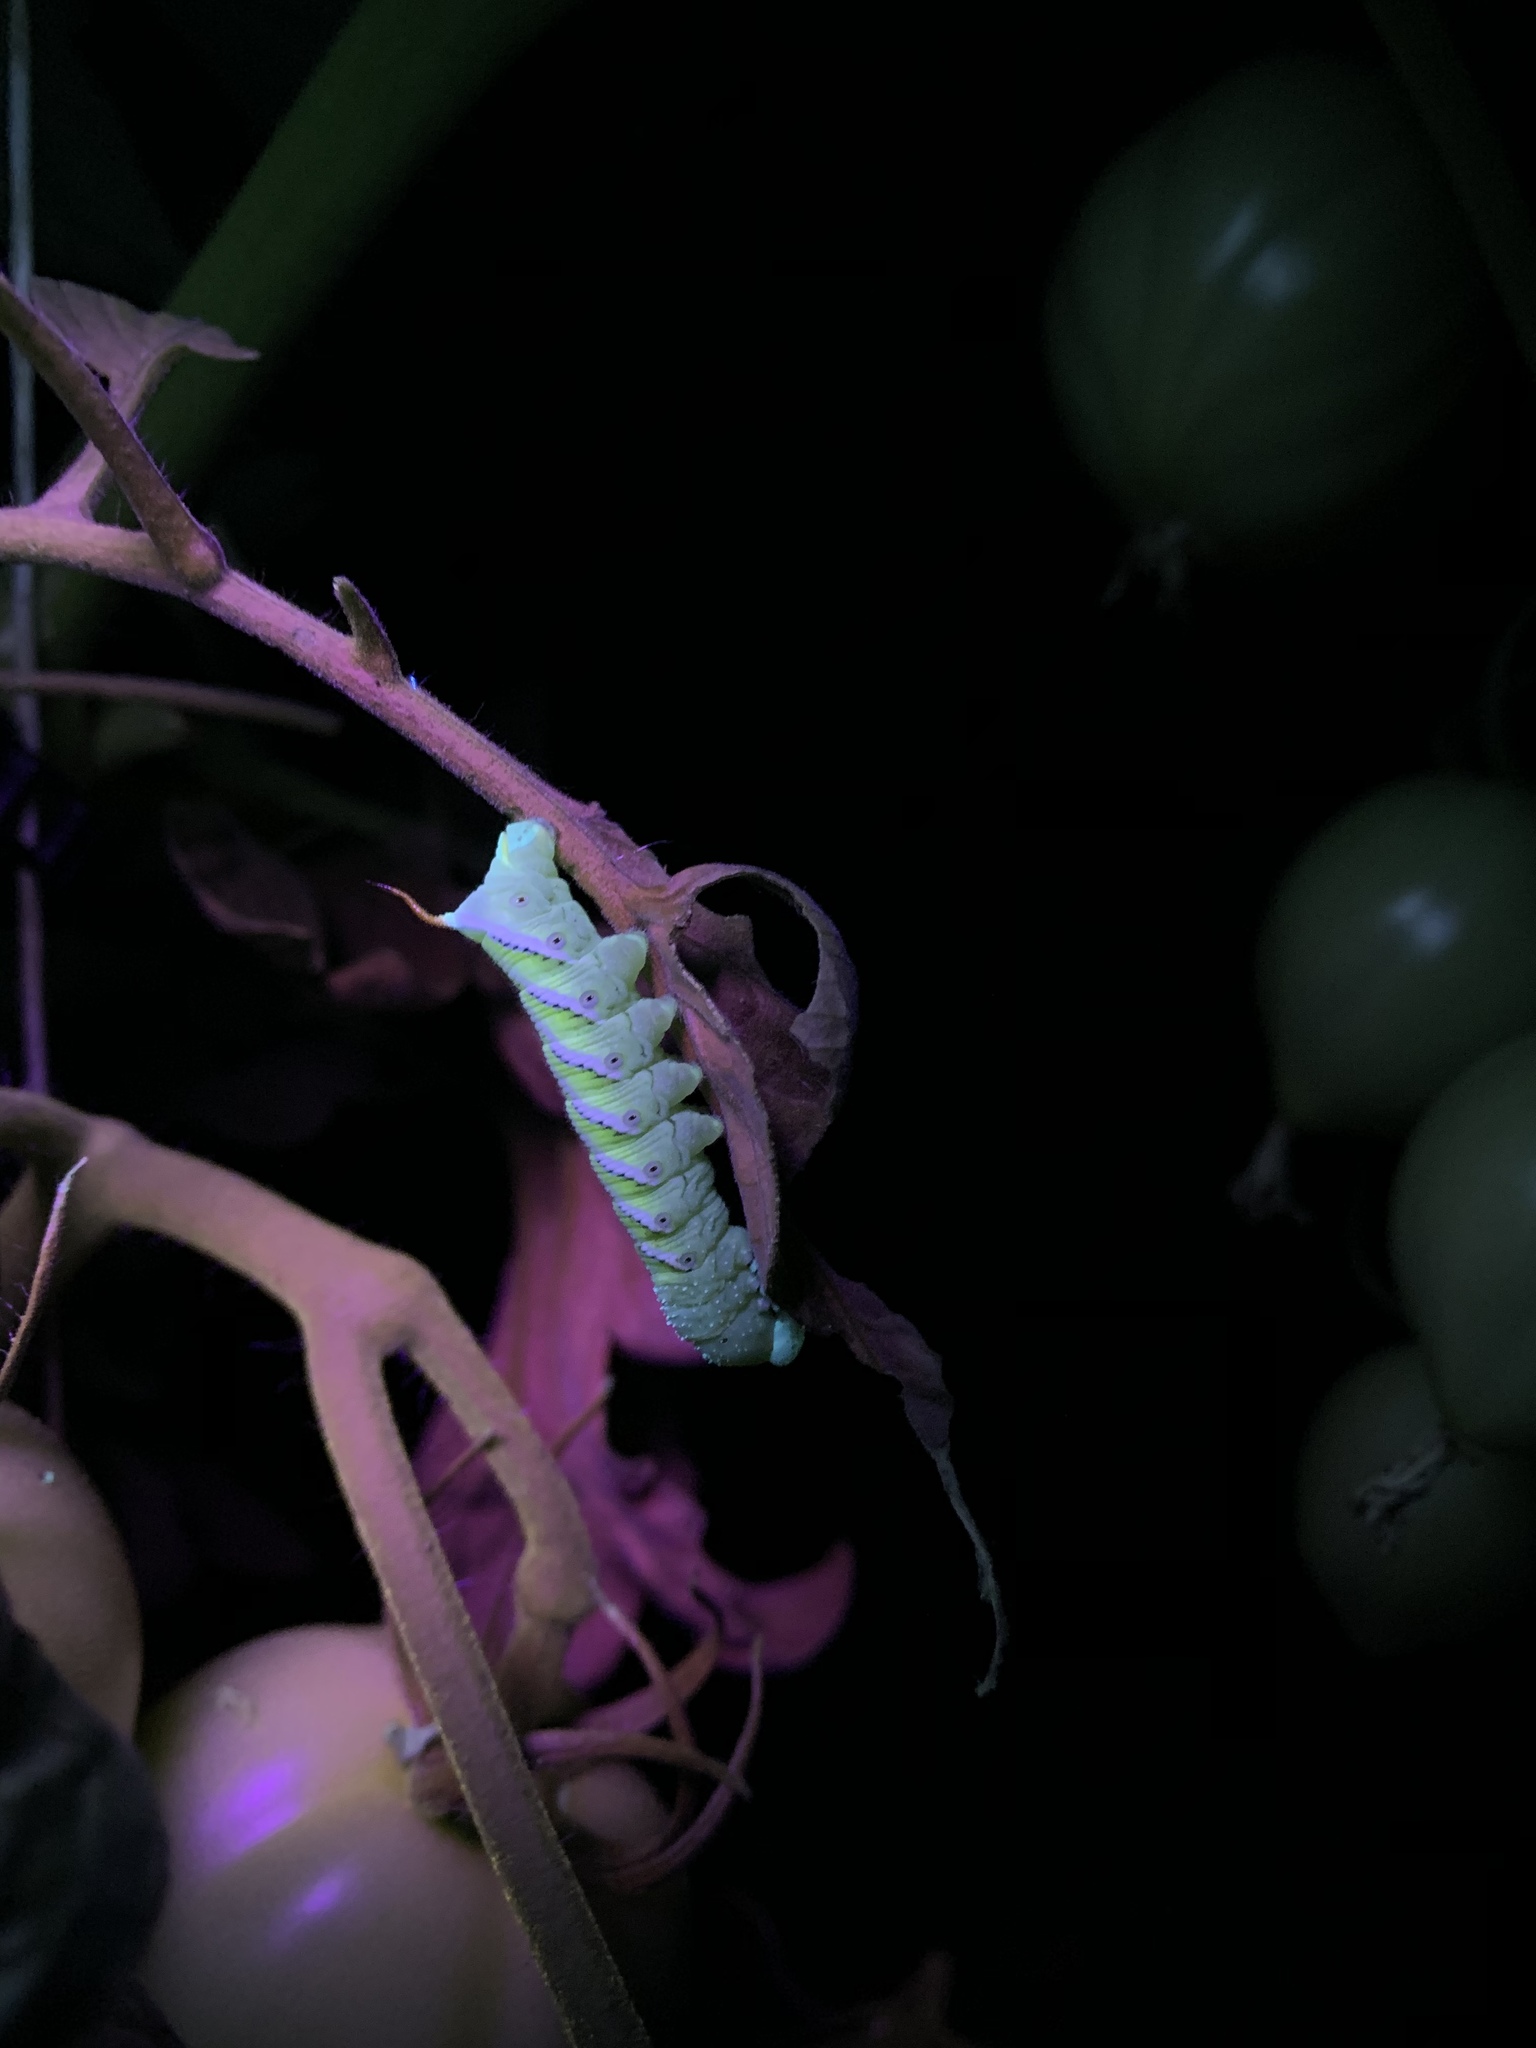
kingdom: Animalia
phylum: Arthropoda
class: Insecta
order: Lepidoptera
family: Sphingidae
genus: Manduca
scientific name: Manduca sexta
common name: Carolina sphinx
